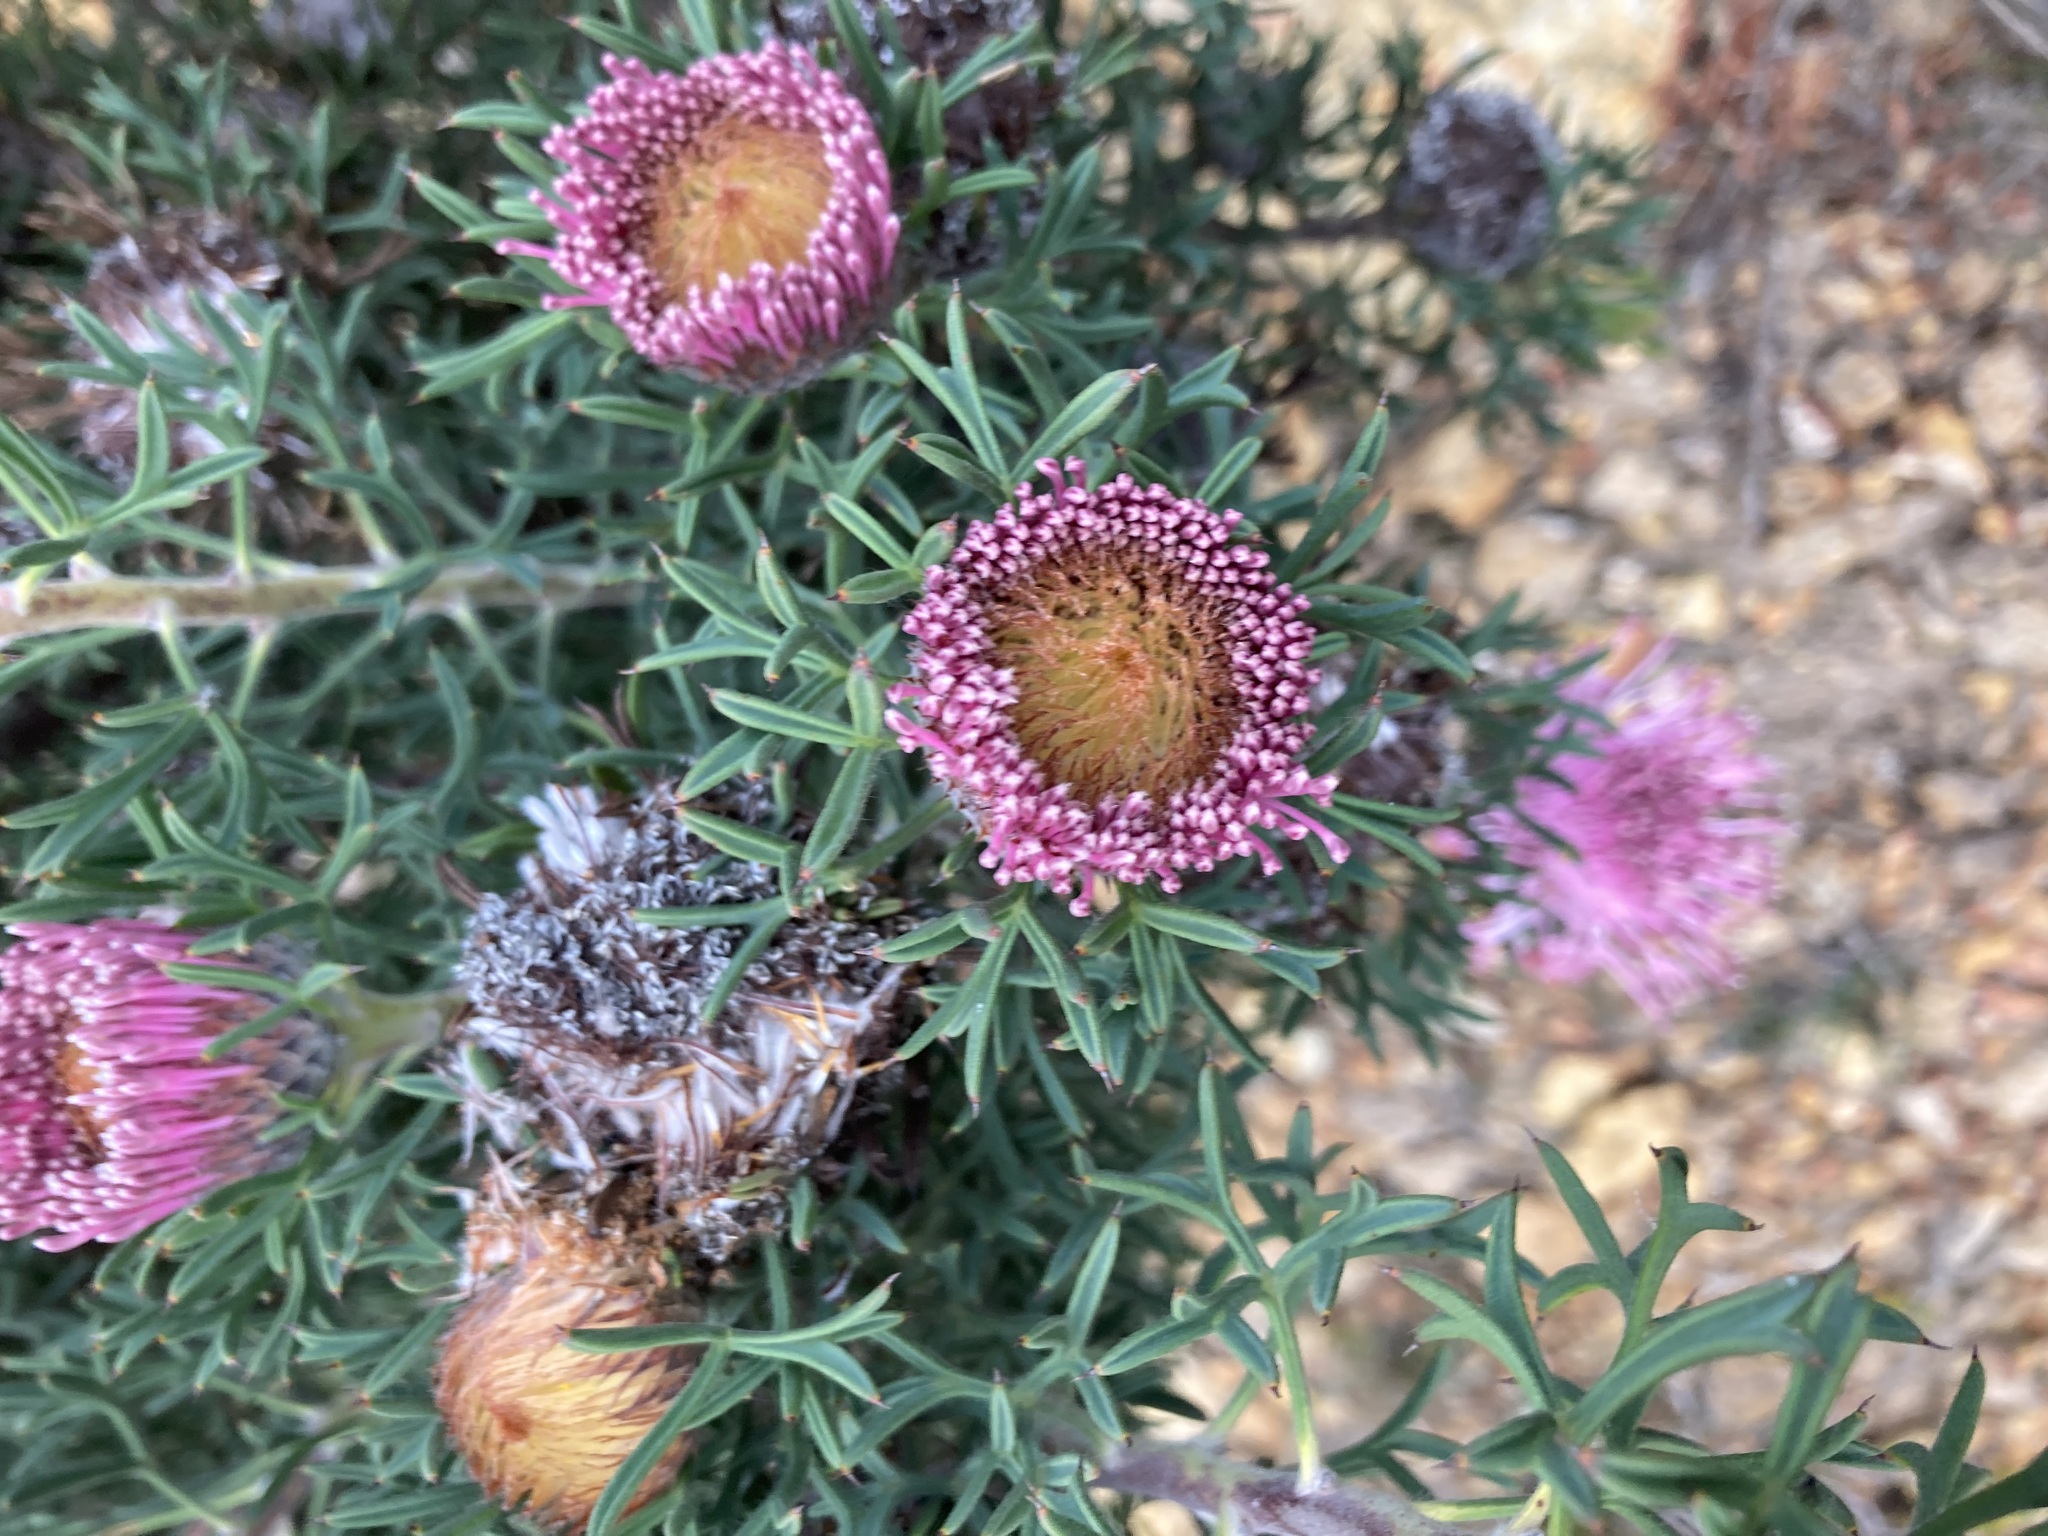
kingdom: Plantae
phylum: Tracheophyta
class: Magnoliopsida
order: Proteales
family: Proteaceae
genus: Isopogon
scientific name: Isopogon dubius
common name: Pincushion-coneflower
